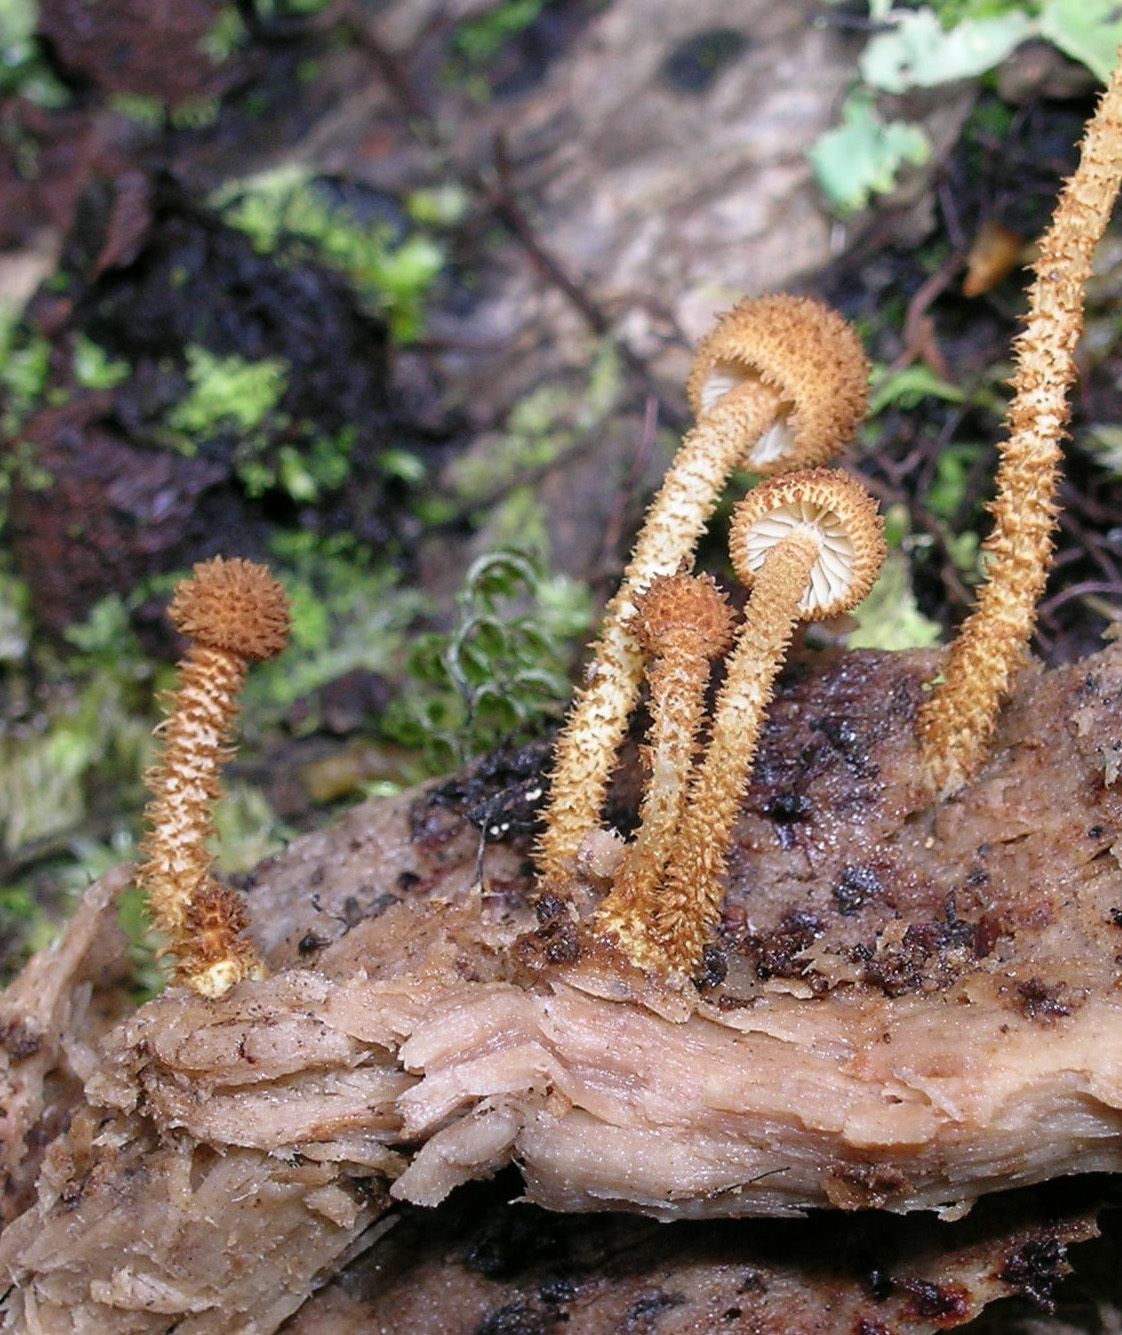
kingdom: Fungi
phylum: Basidiomycota
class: Agaricomycetes
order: Agaricales
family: Tubariaceae
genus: Flammulaster
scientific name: Flammulaster ciliatus
